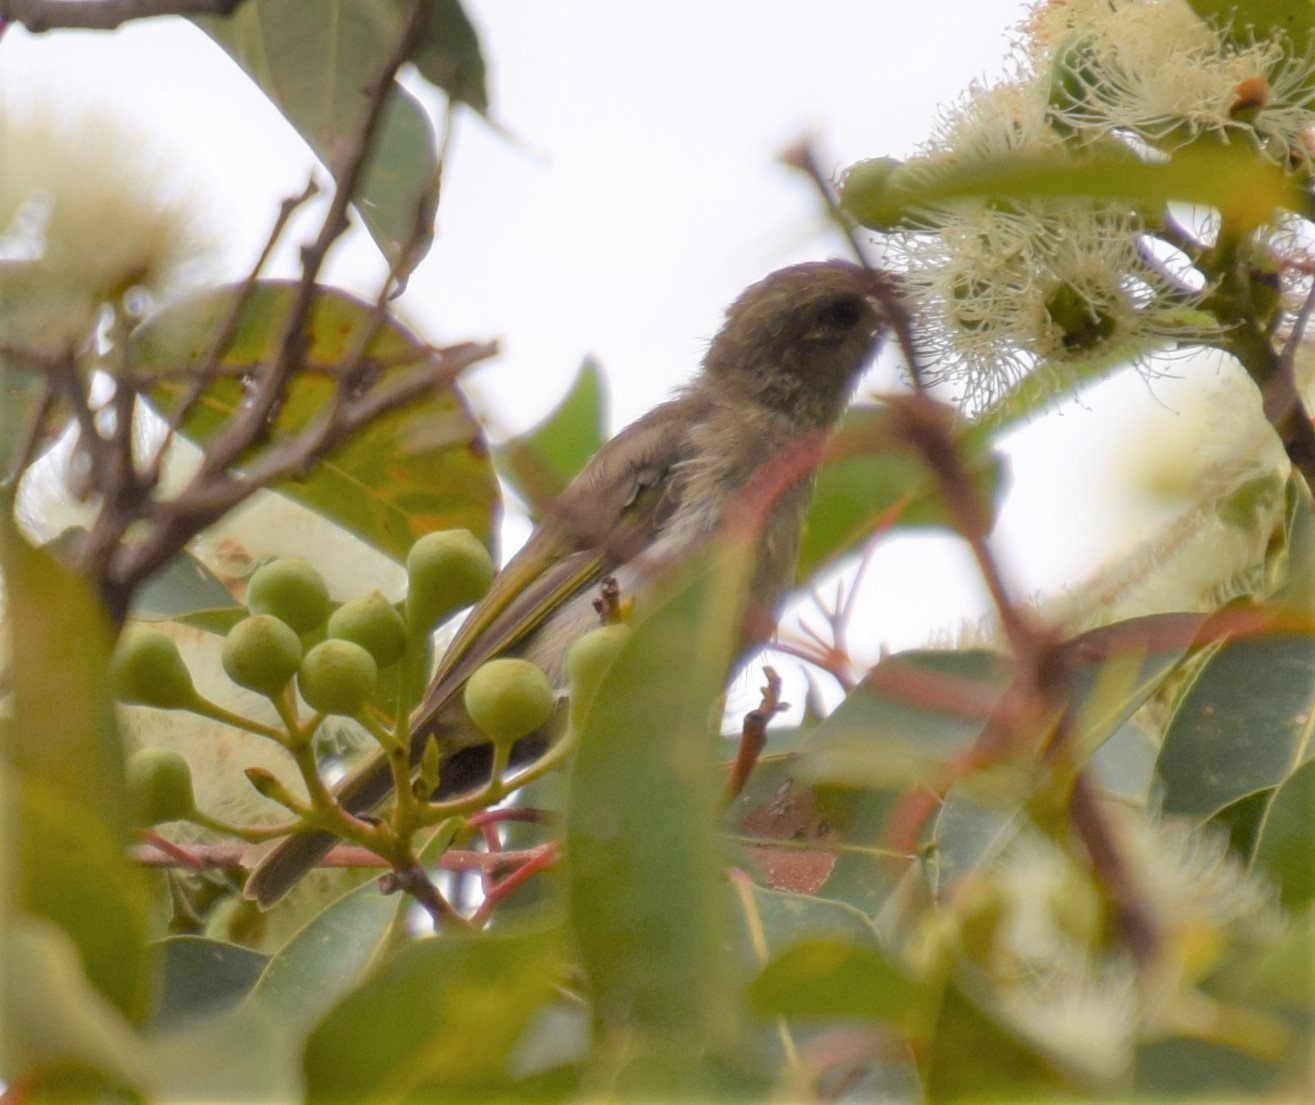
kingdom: Animalia
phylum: Chordata
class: Aves
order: Passeriformes
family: Meliphagidae
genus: Lichmera
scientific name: Lichmera indistincta
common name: Brown honeyeater
